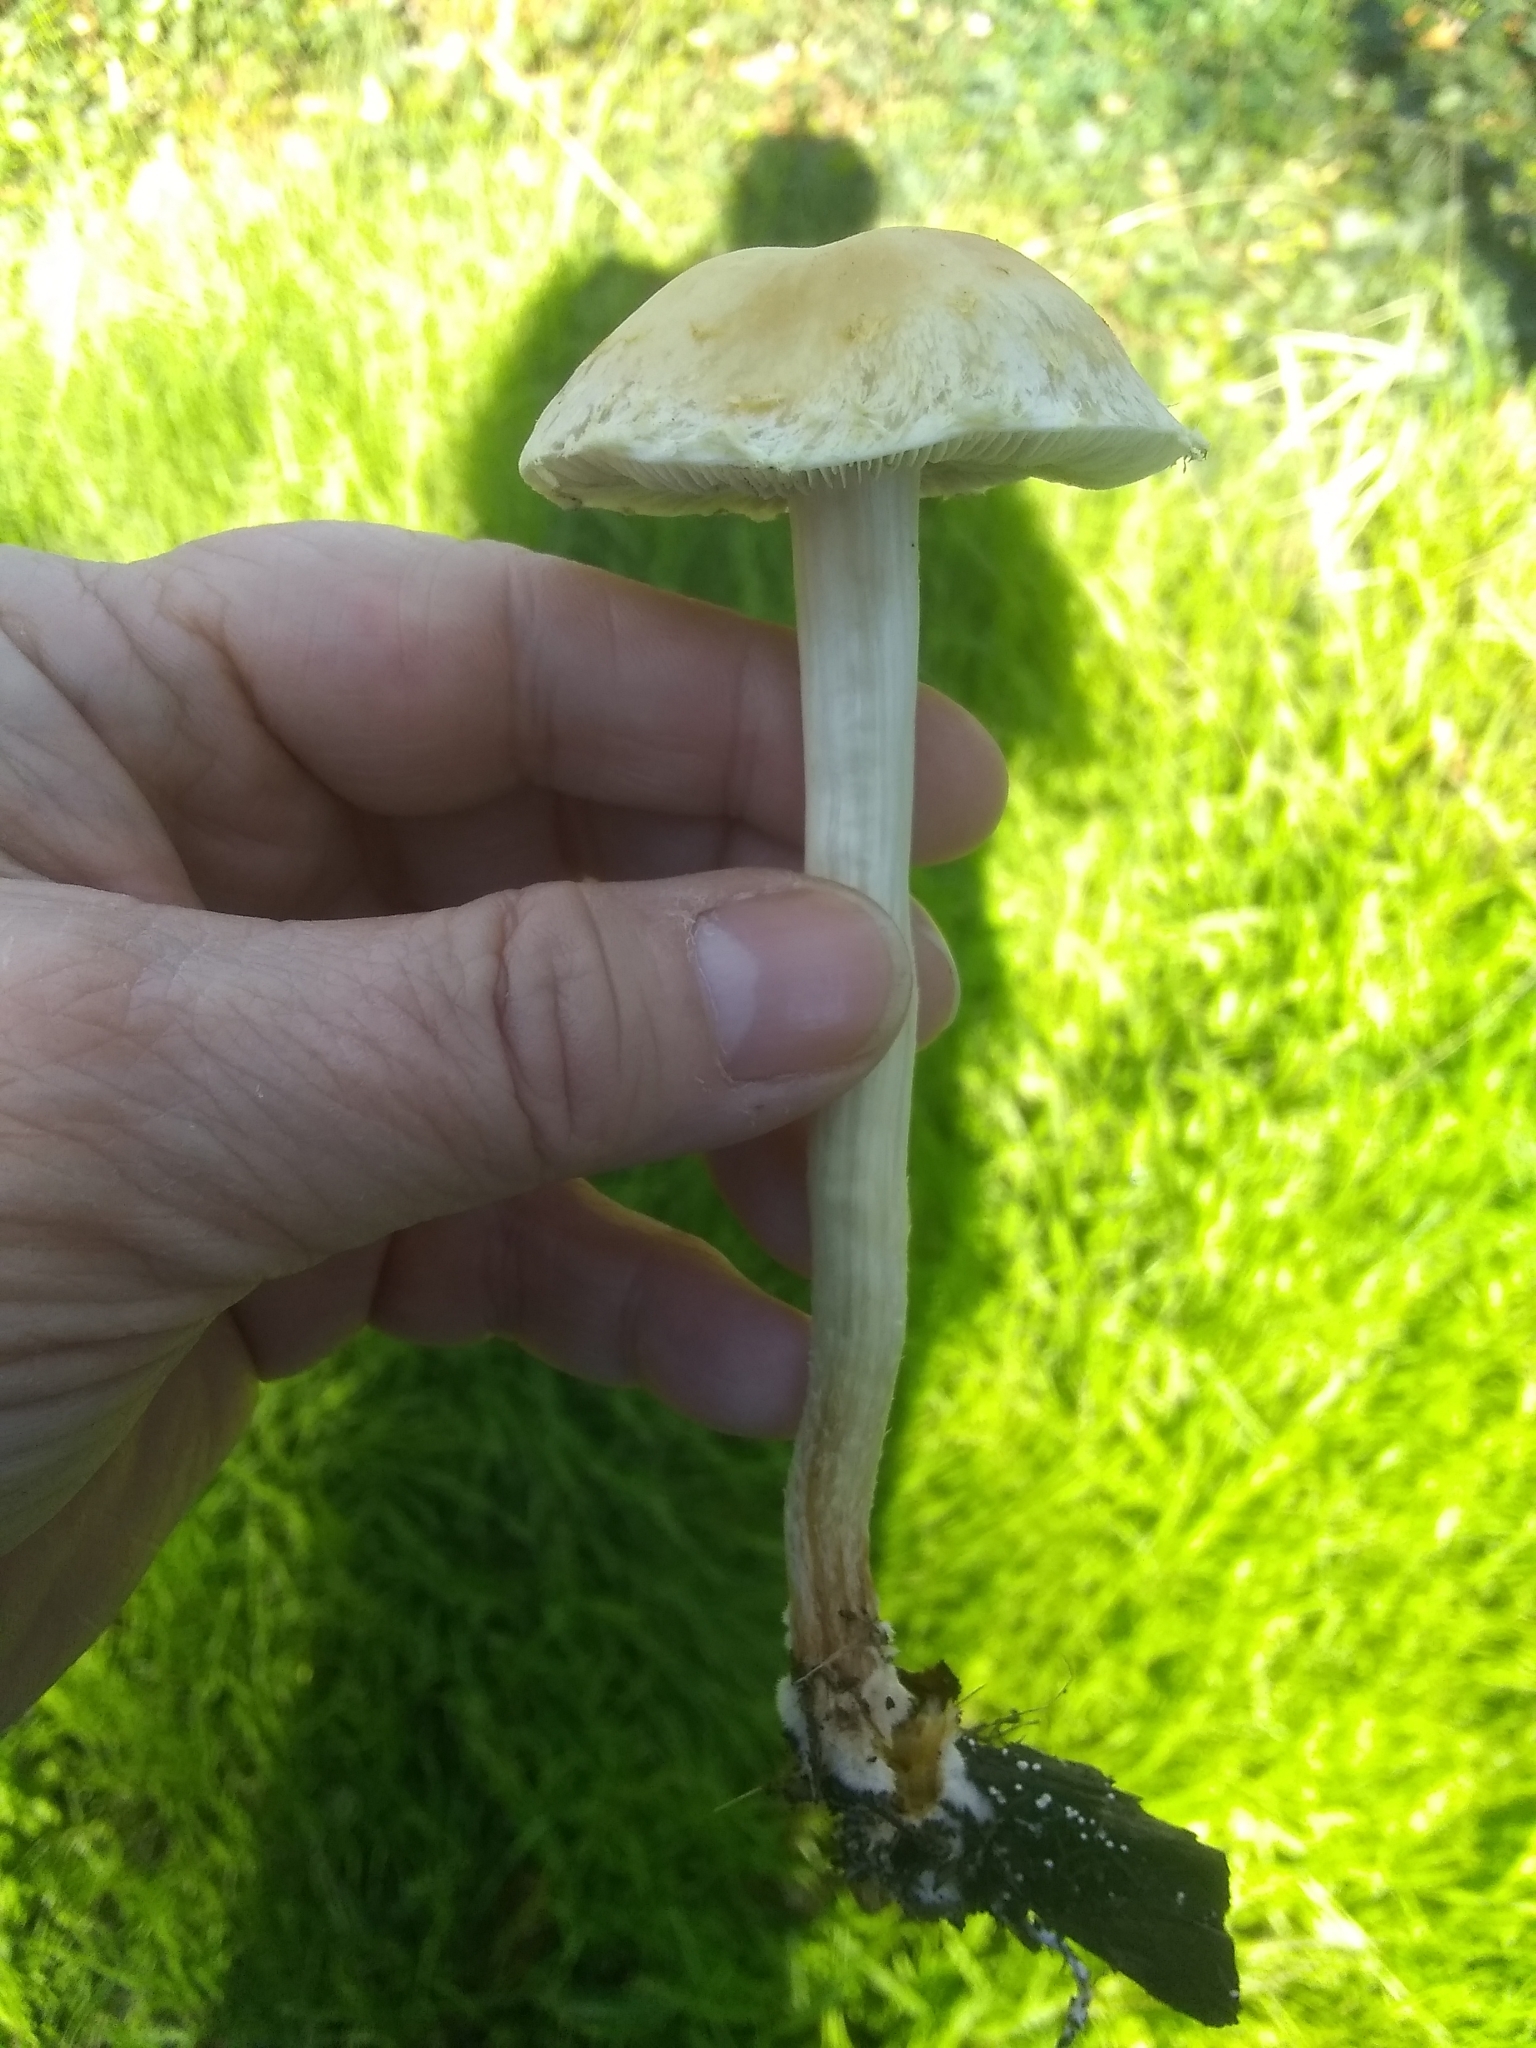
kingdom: Fungi
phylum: Basidiomycota
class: Agaricomycetes
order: Agaricales
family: Strophariaceae
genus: Leratiomyces
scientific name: Leratiomyces percevalii
